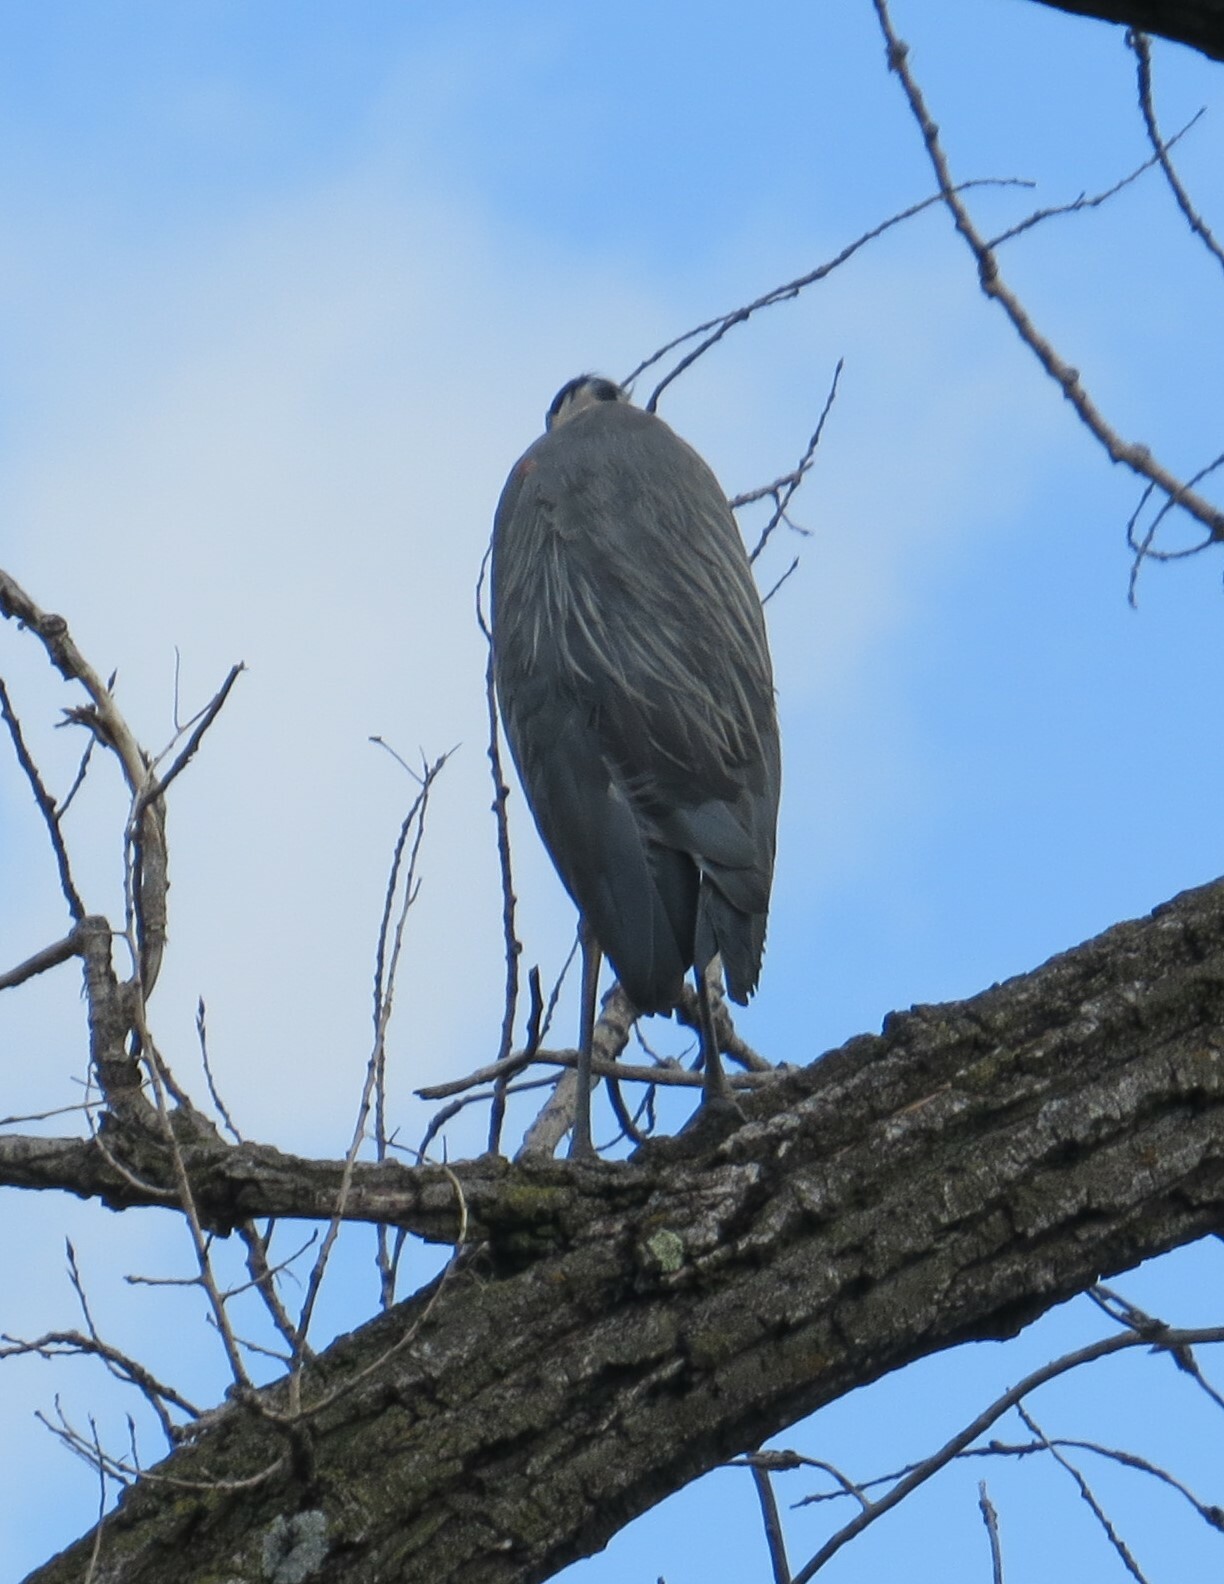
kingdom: Animalia
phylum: Chordata
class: Aves
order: Pelecaniformes
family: Ardeidae
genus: Ardea
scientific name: Ardea herodias
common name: Great blue heron
